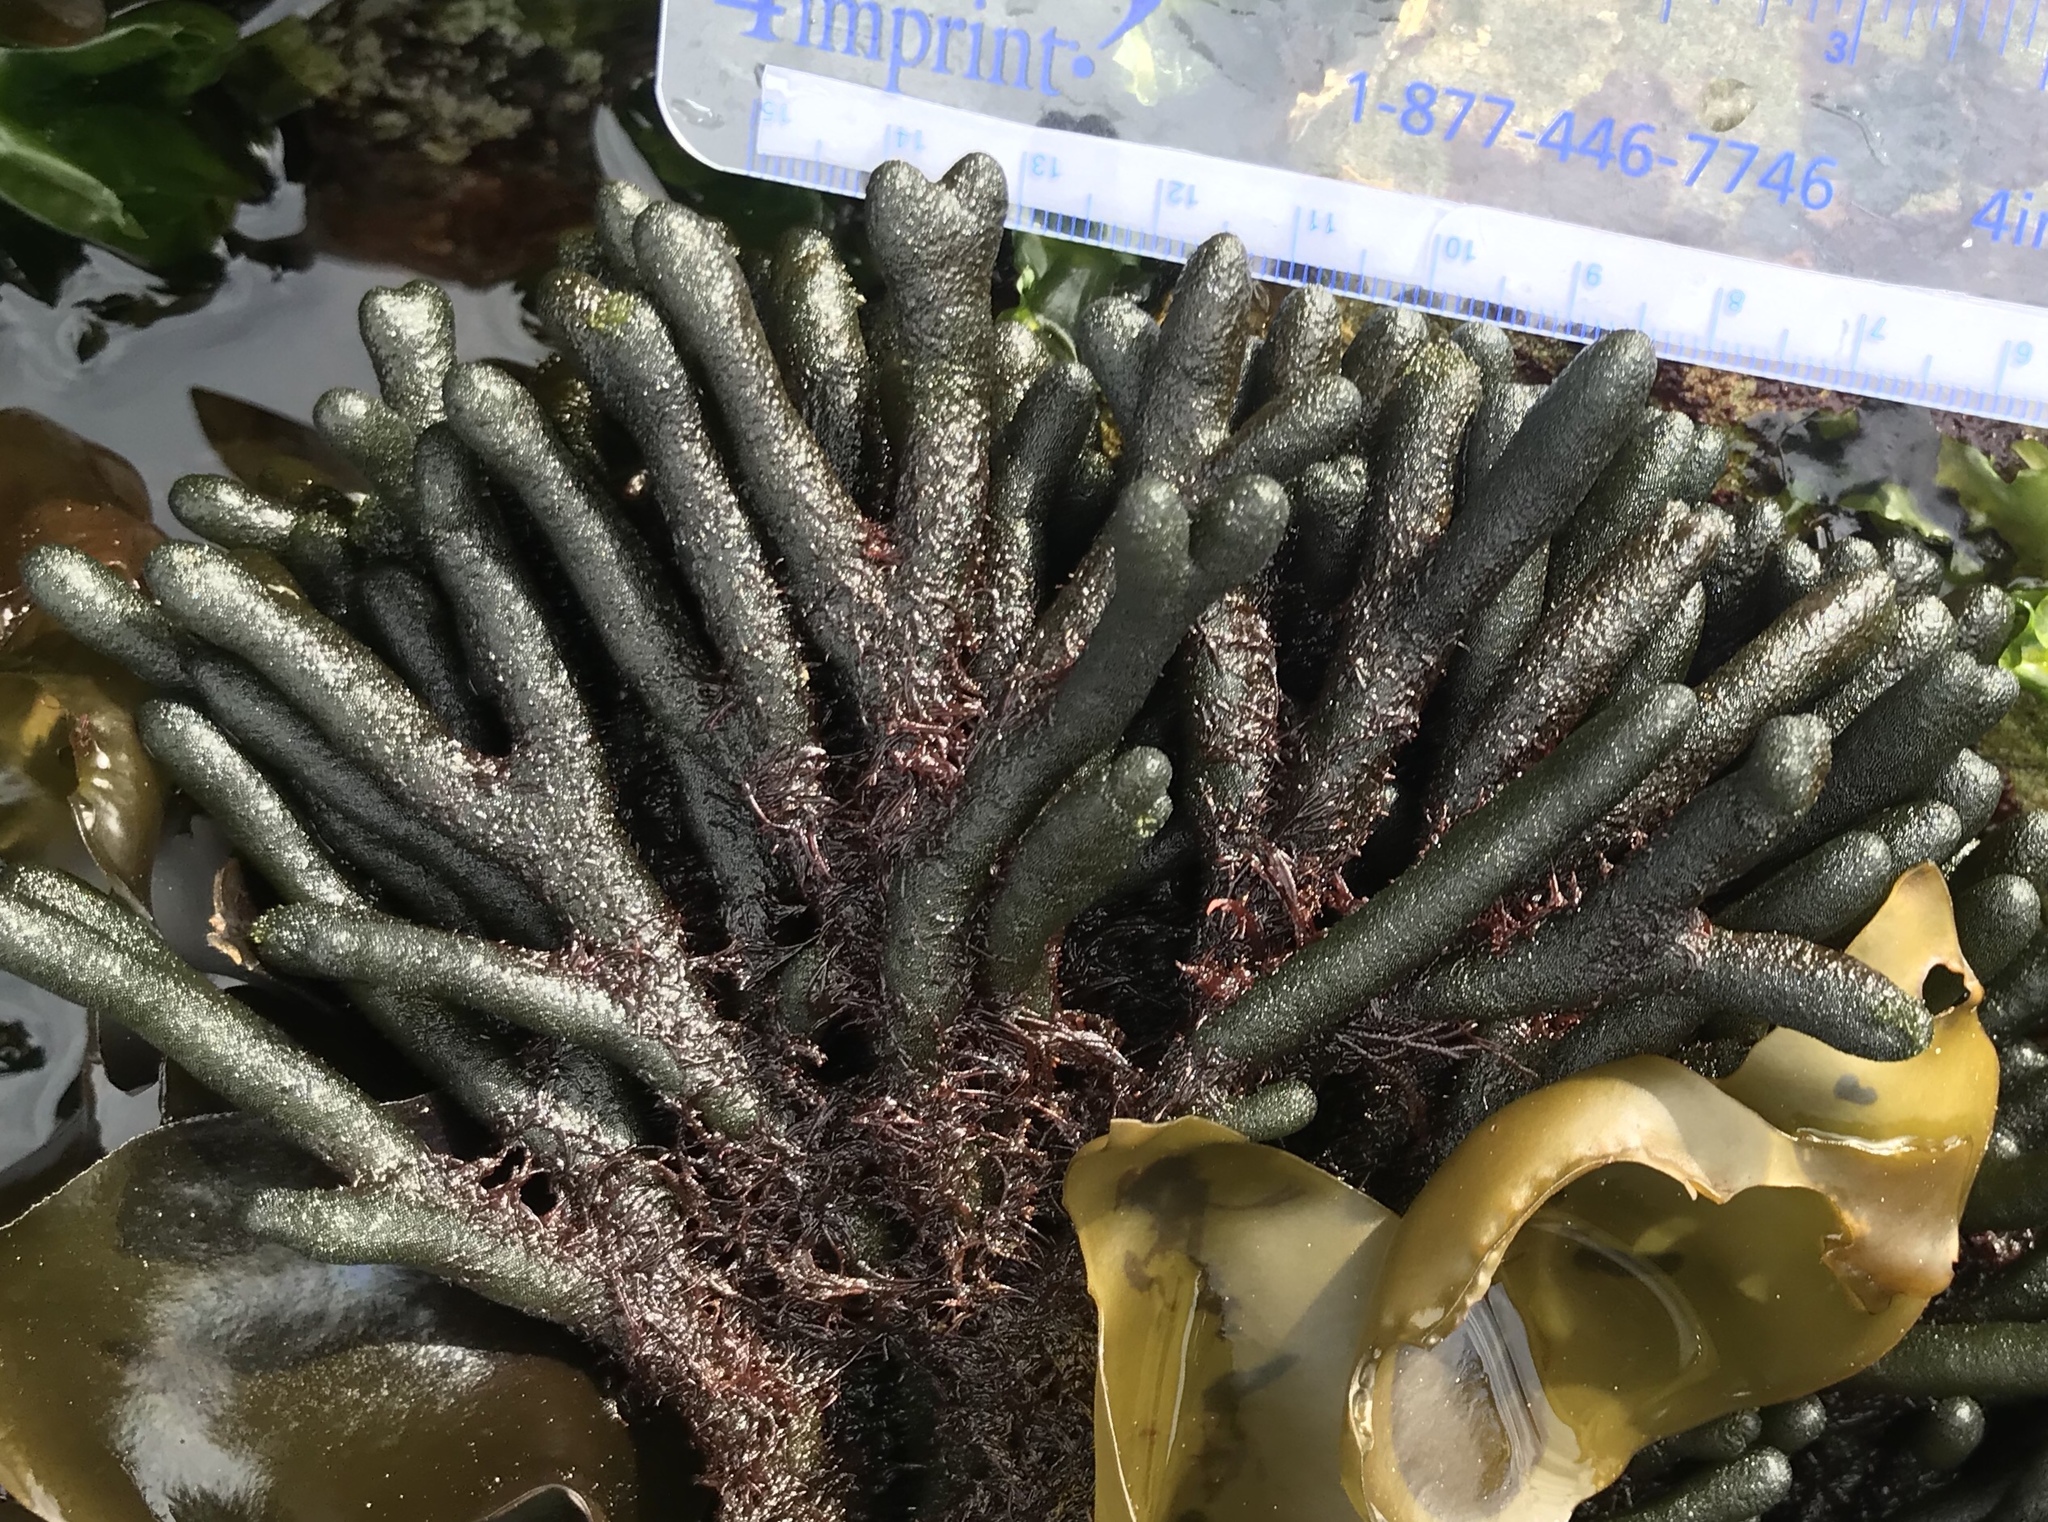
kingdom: Plantae
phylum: Chlorophyta
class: Ulvophyceae
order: Bryopsidales
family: Codiaceae
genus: Codium
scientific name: Codium fragile
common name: Dead man's fingers
